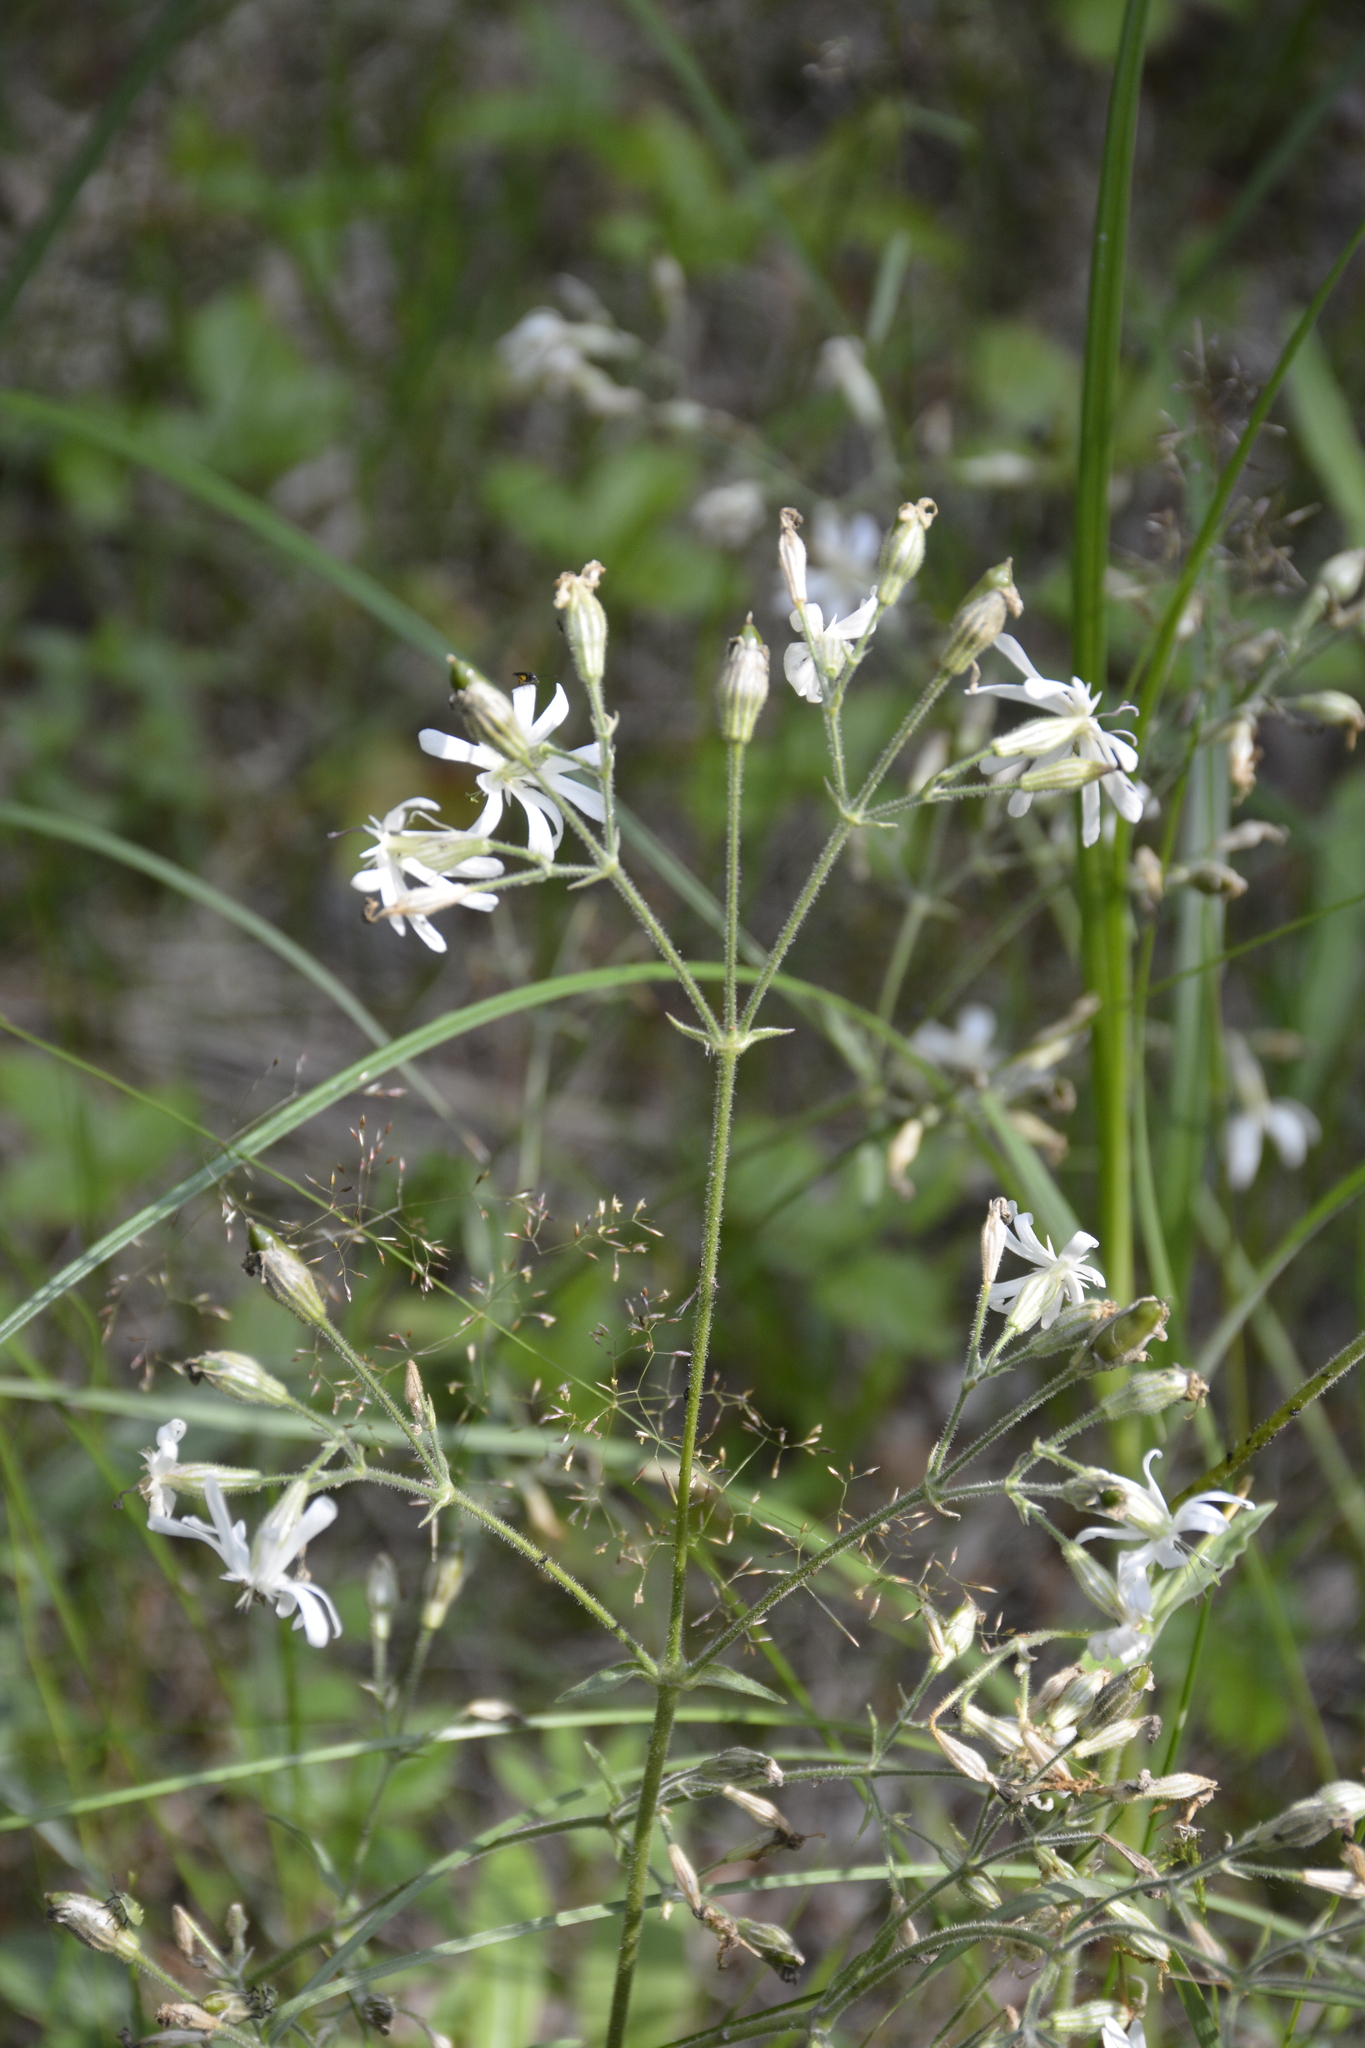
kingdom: Plantae
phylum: Tracheophyta
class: Magnoliopsida
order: Caryophyllales
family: Caryophyllaceae
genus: Silene
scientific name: Silene nutans
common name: Nottingham catchfly
